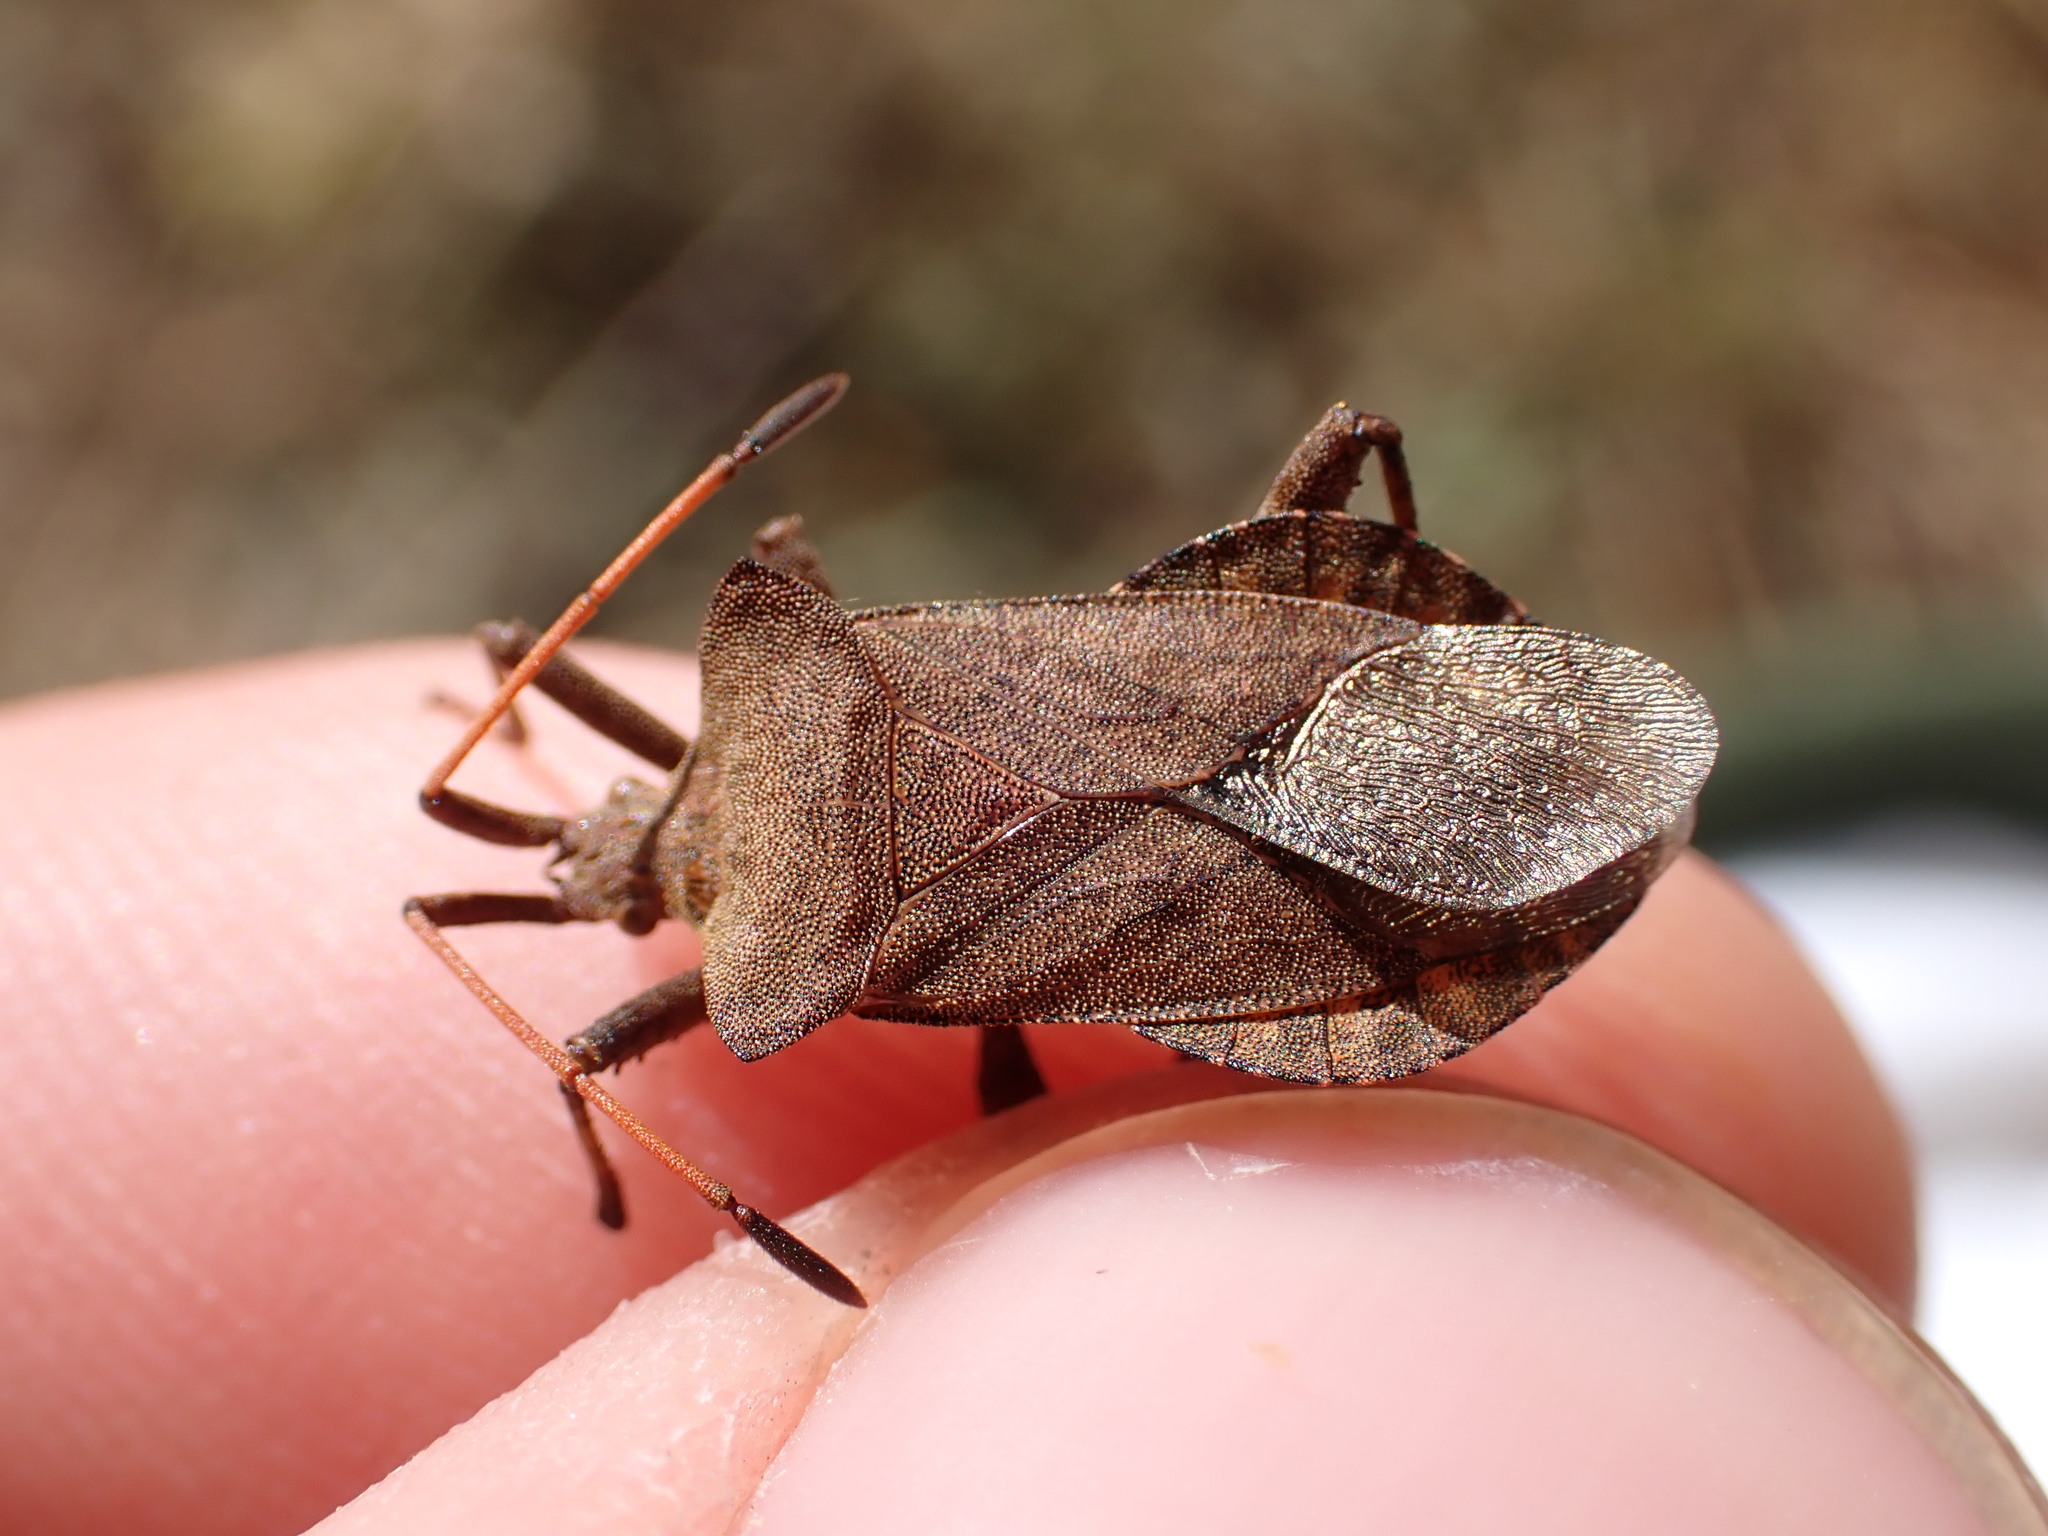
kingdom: Animalia
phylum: Arthropoda
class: Insecta
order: Hemiptera
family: Coreidae
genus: Coreus
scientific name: Coreus marginatus
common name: Dock bug
